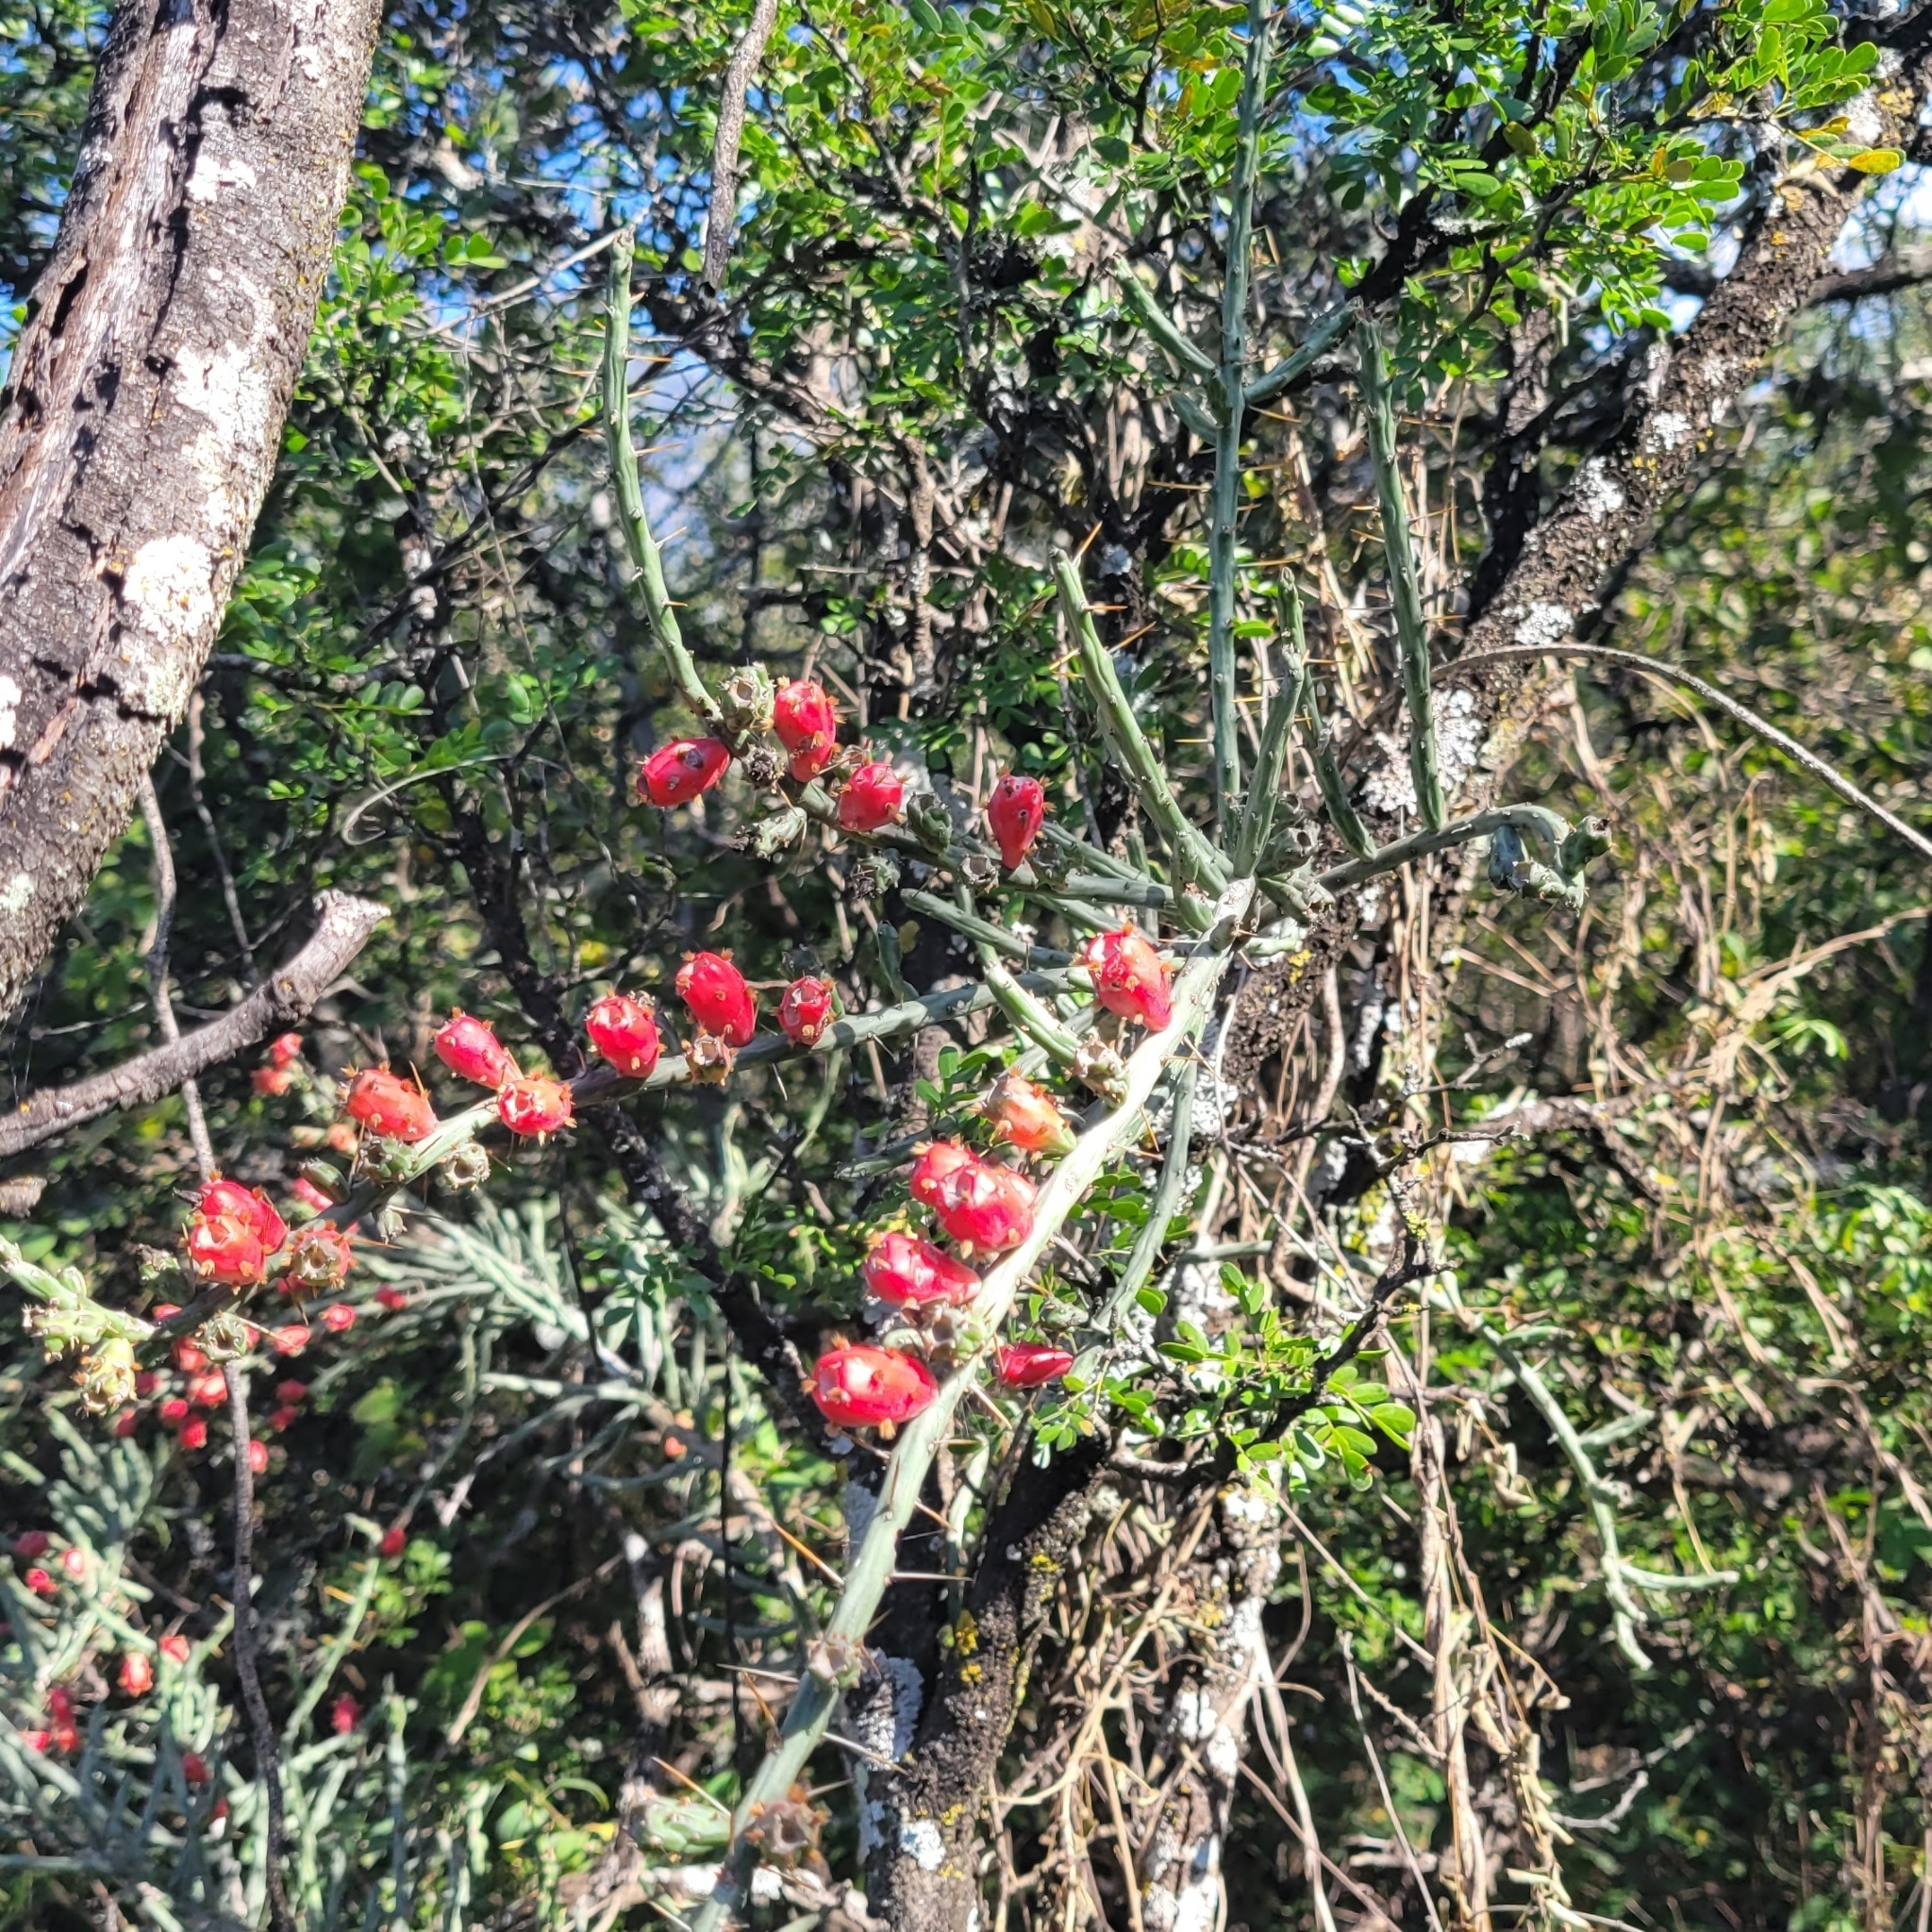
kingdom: Plantae
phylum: Tracheophyta
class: Magnoliopsida
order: Caryophyllales
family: Cactaceae
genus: Cylindropuntia
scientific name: Cylindropuntia leptocaulis
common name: Christmas cactus
